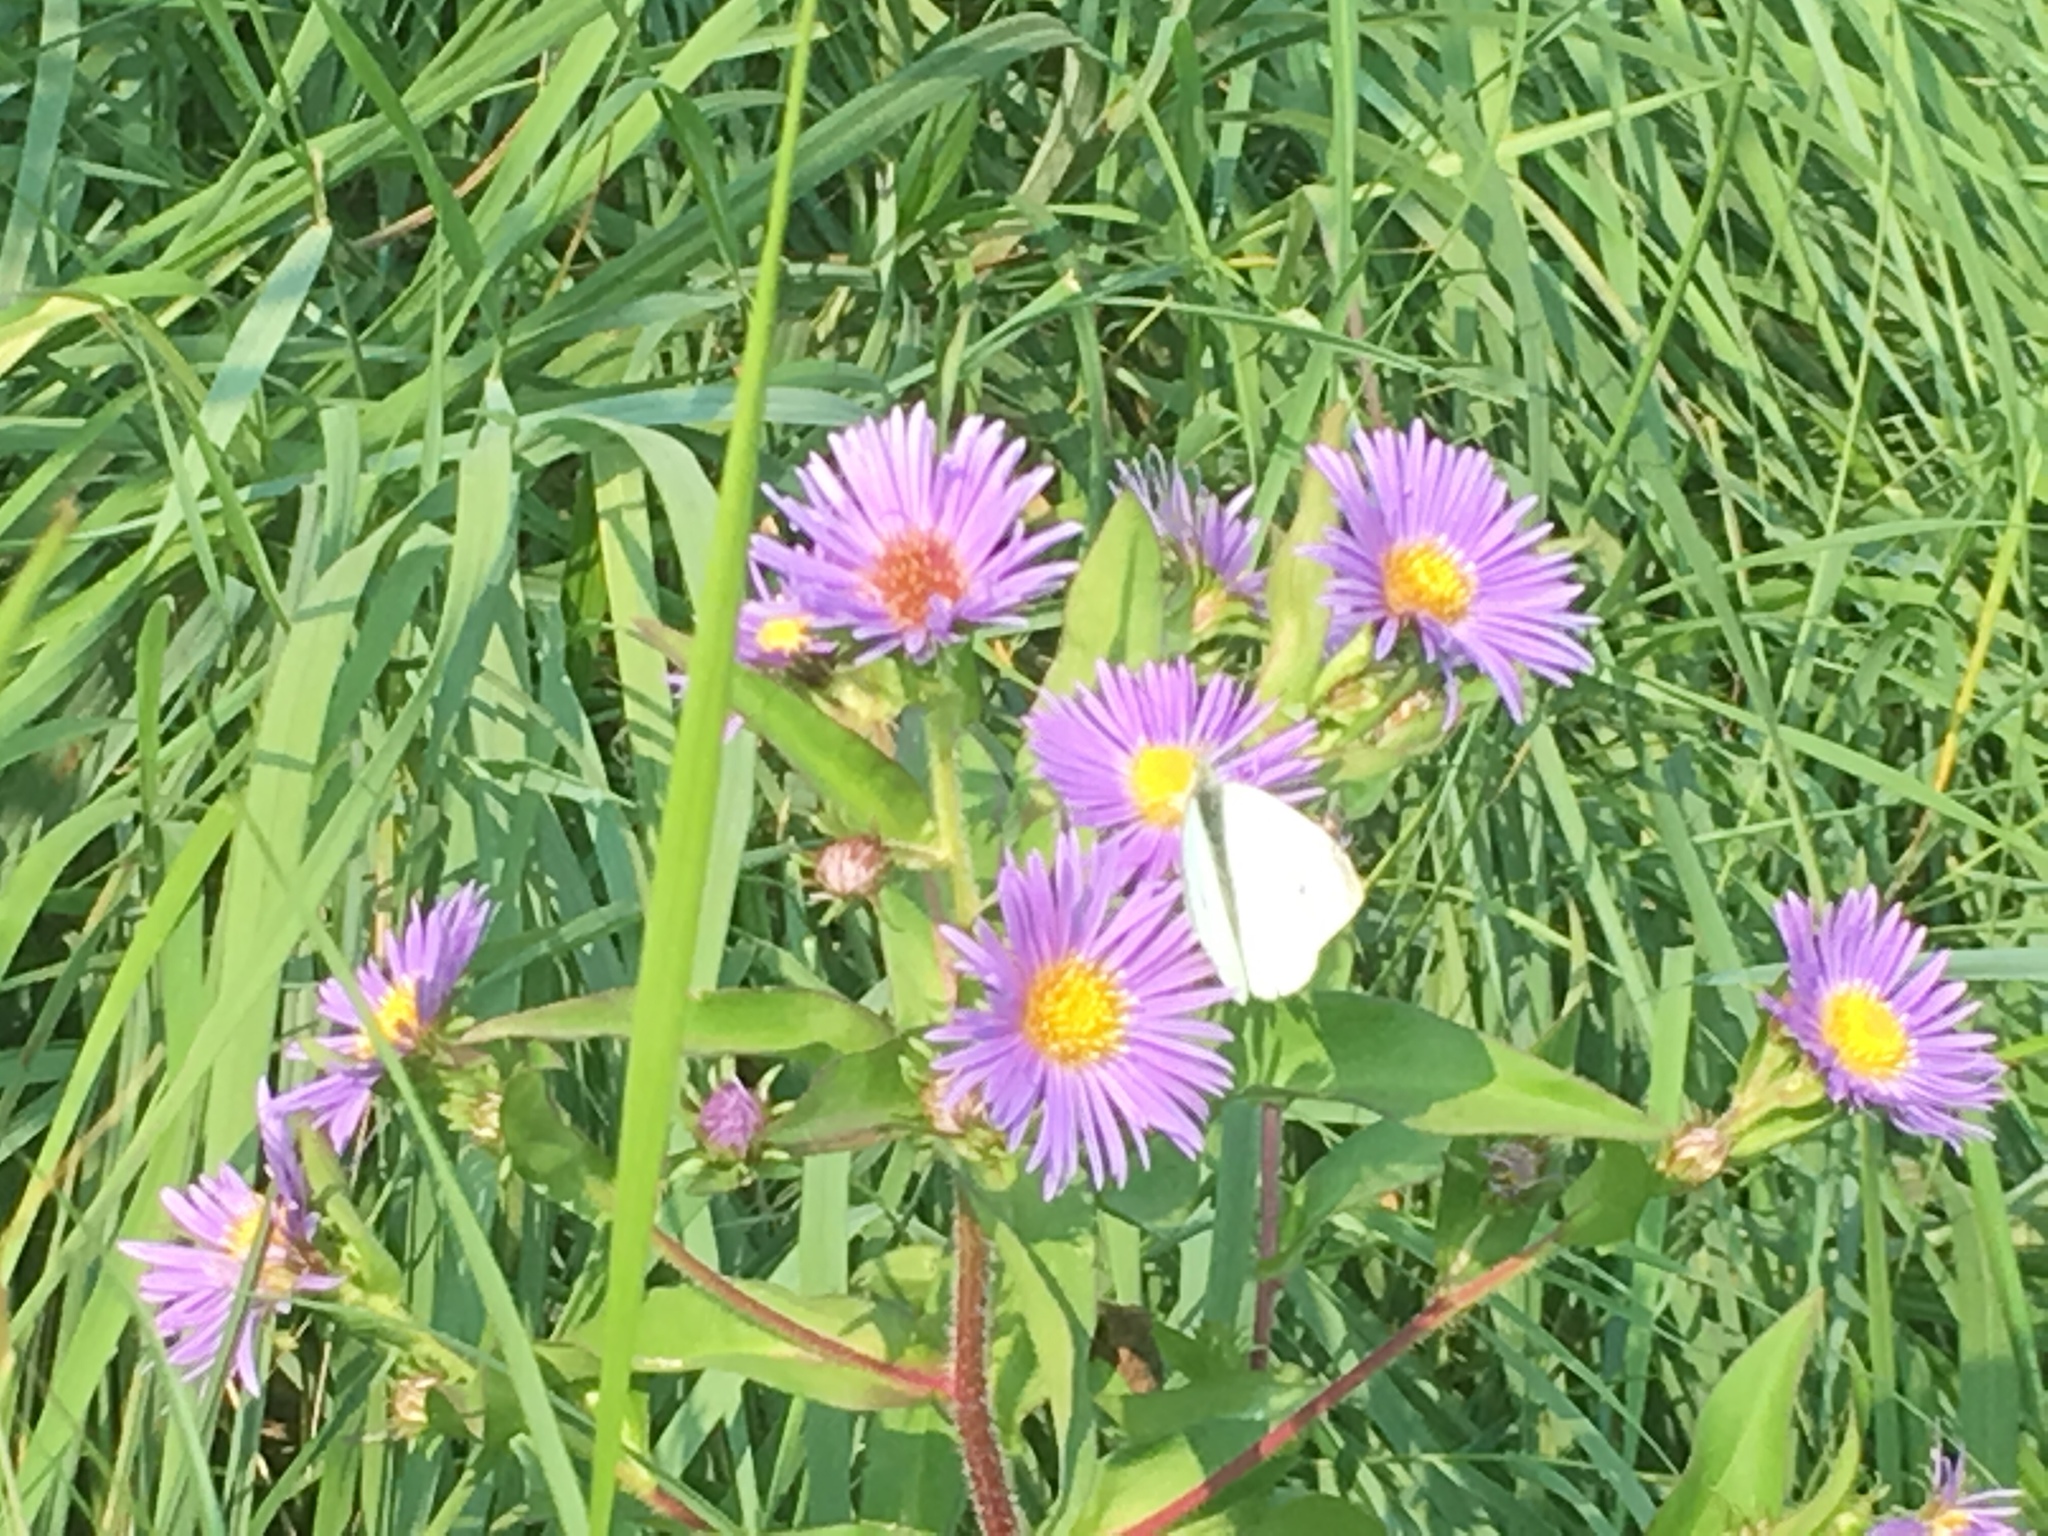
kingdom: Plantae
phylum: Tracheophyta
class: Magnoliopsida
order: Asterales
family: Asteraceae
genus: Symphyotrichum
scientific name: Symphyotrichum puniceum
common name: Bog aster
